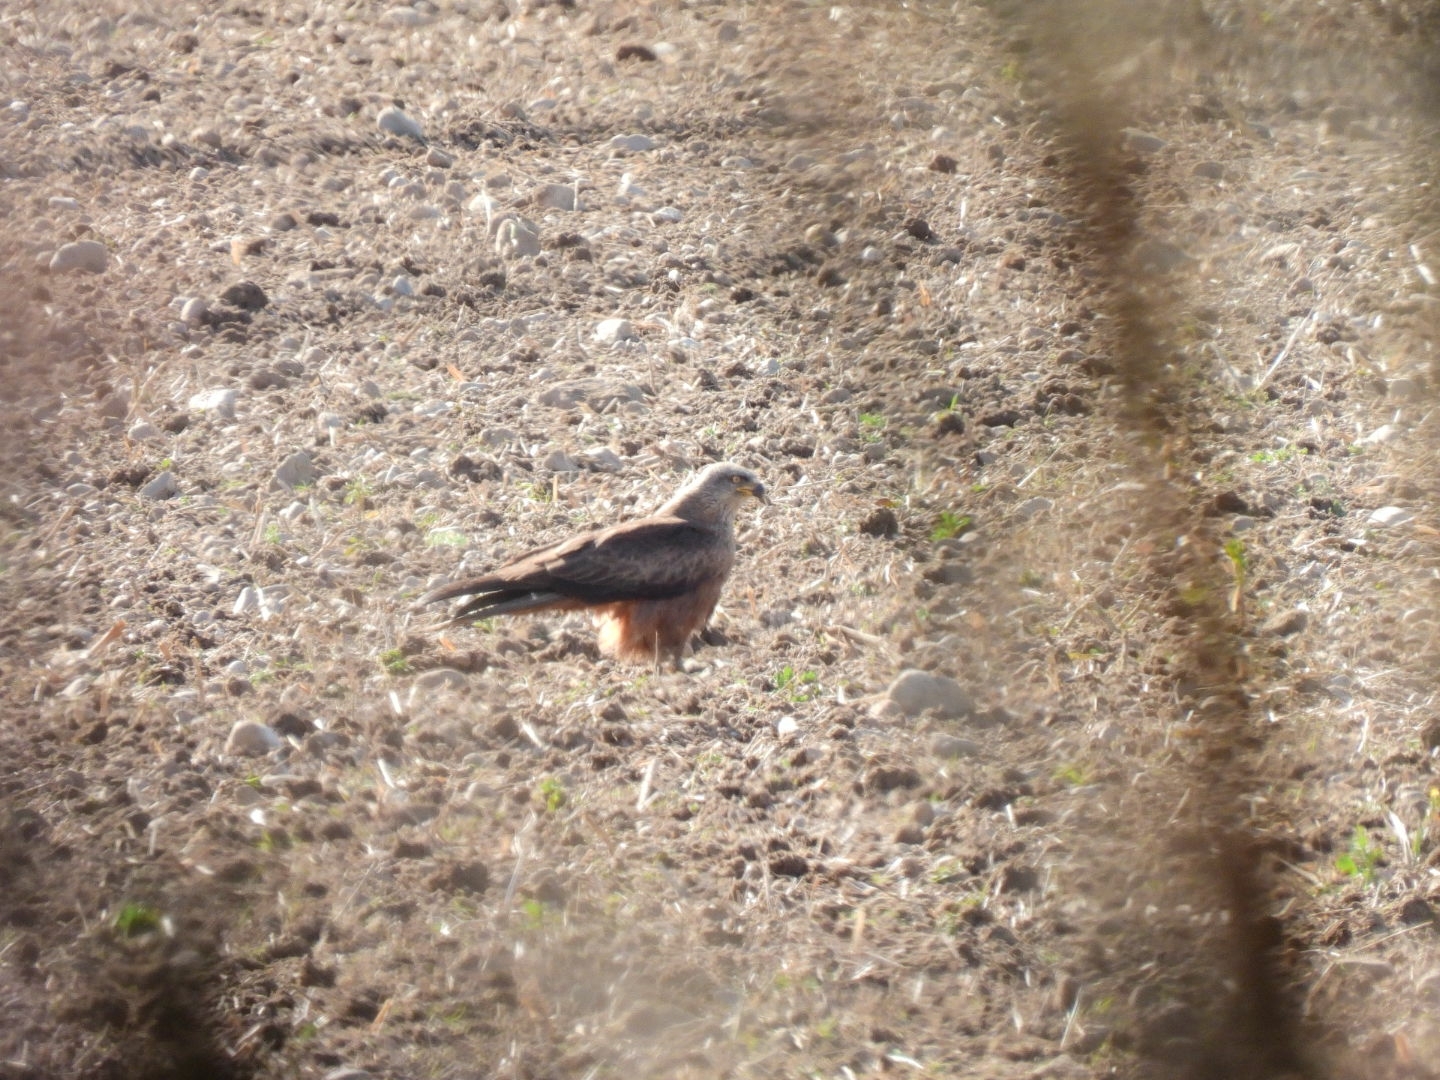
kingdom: Animalia
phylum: Chordata
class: Aves
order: Accipitriformes
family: Accipitridae
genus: Milvus
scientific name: Milvus migrans
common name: Black kite
